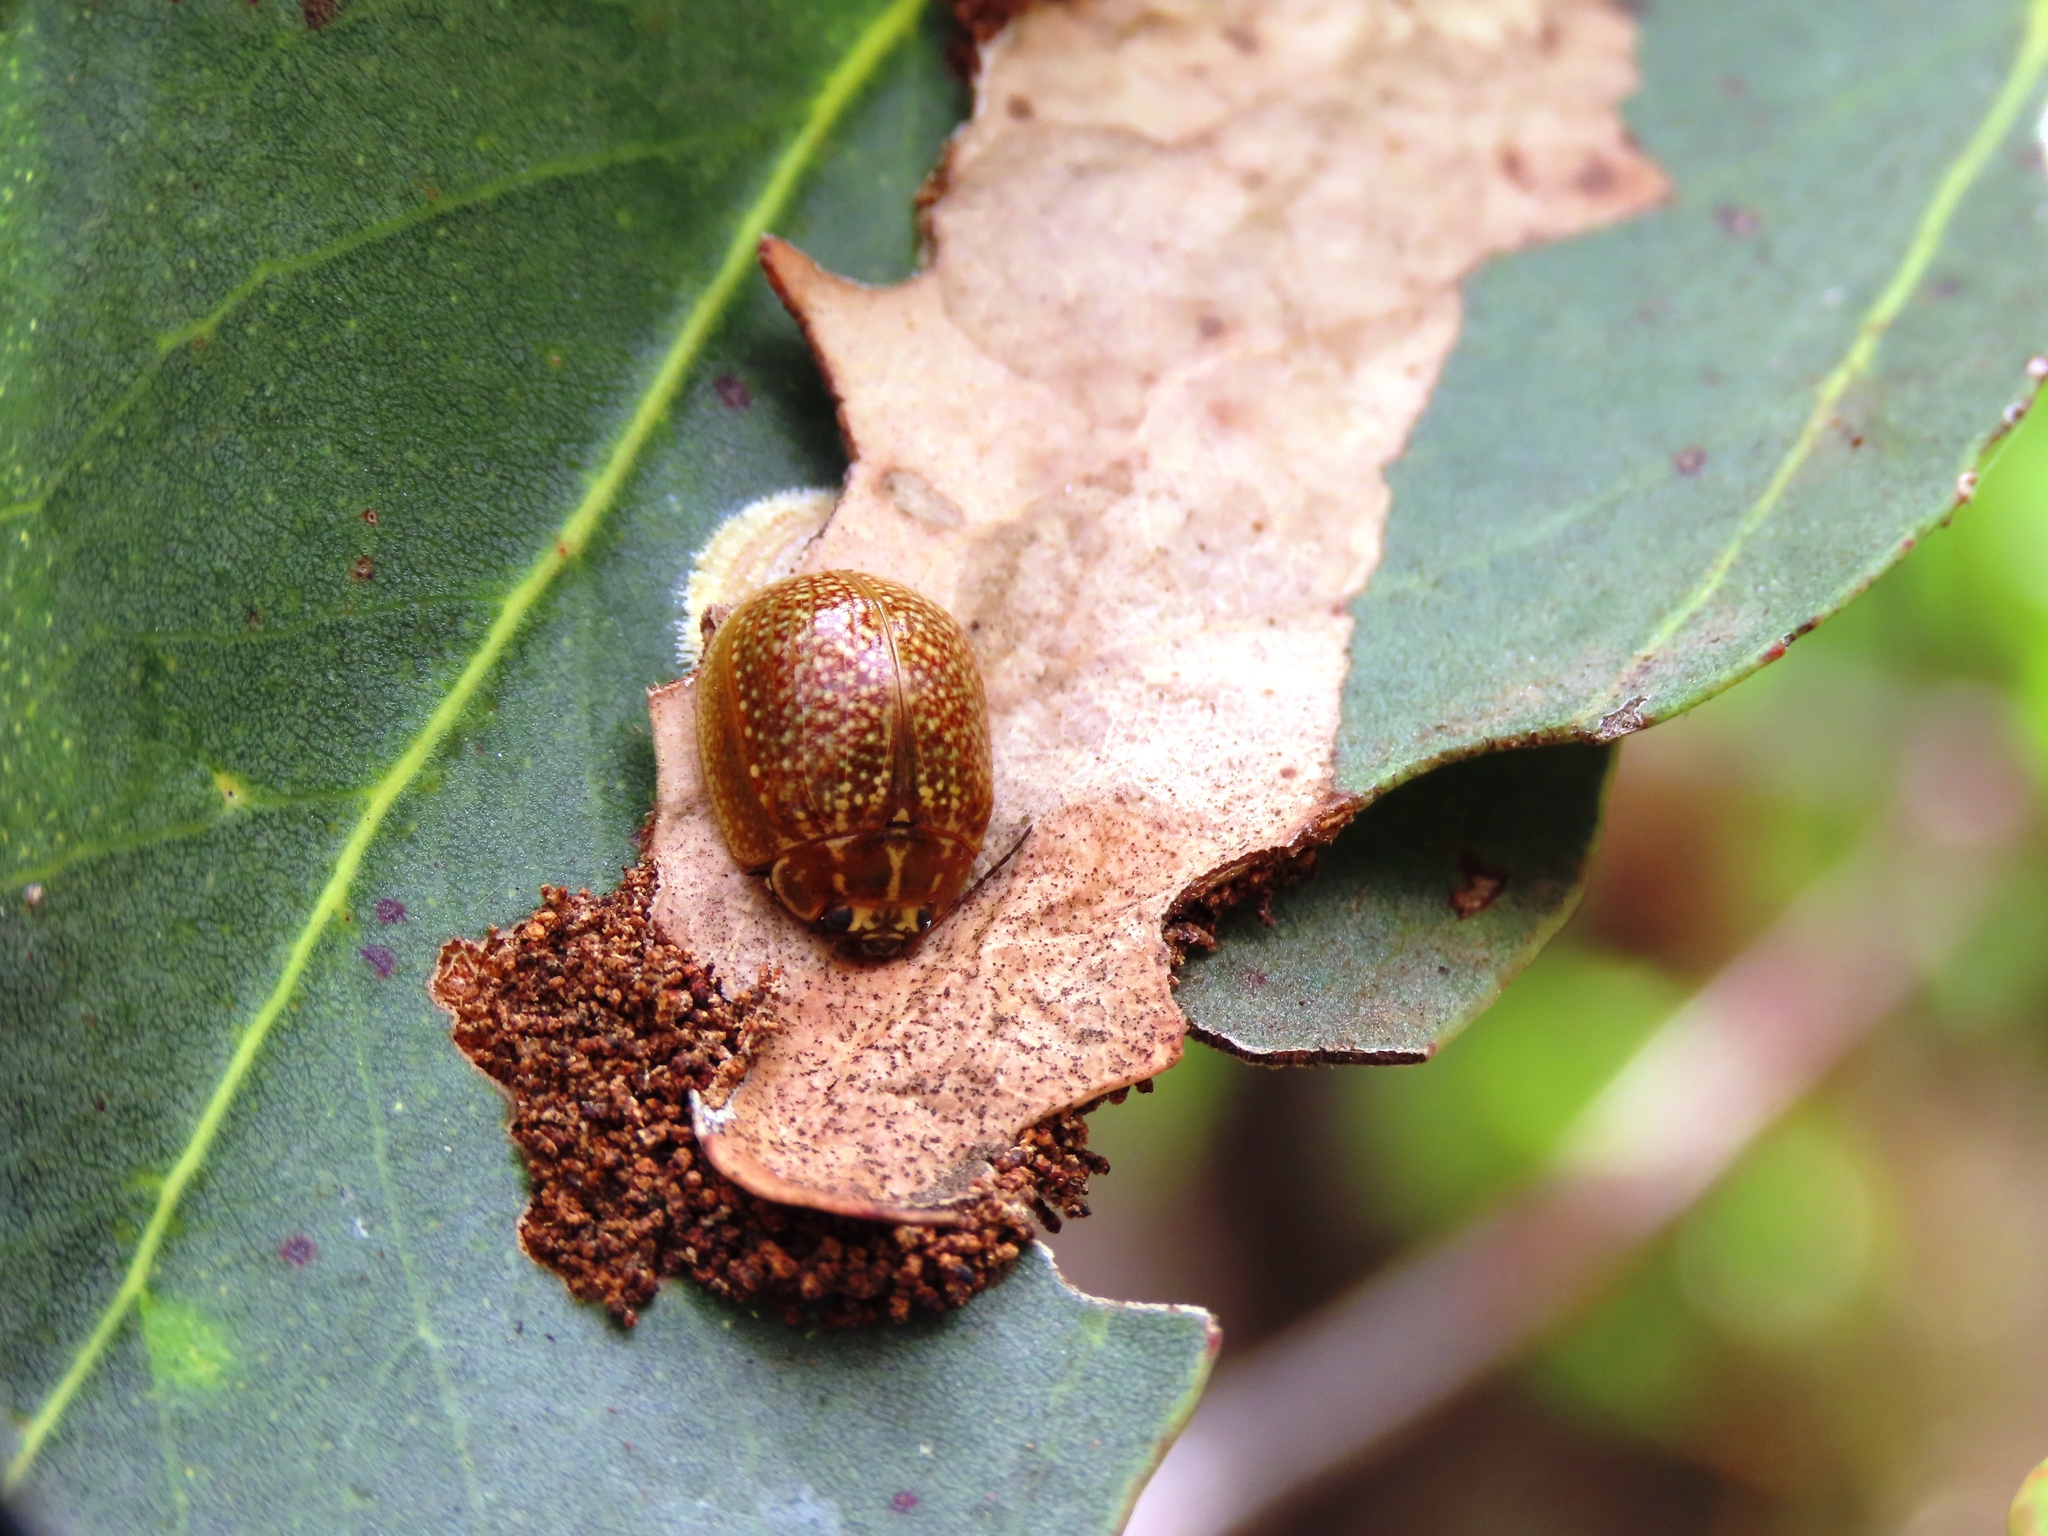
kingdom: Animalia
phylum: Arthropoda
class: Insecta
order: Coleoptera
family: Chrysomelidae
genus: Paropsisterna
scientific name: Paropsisterna cloelia
